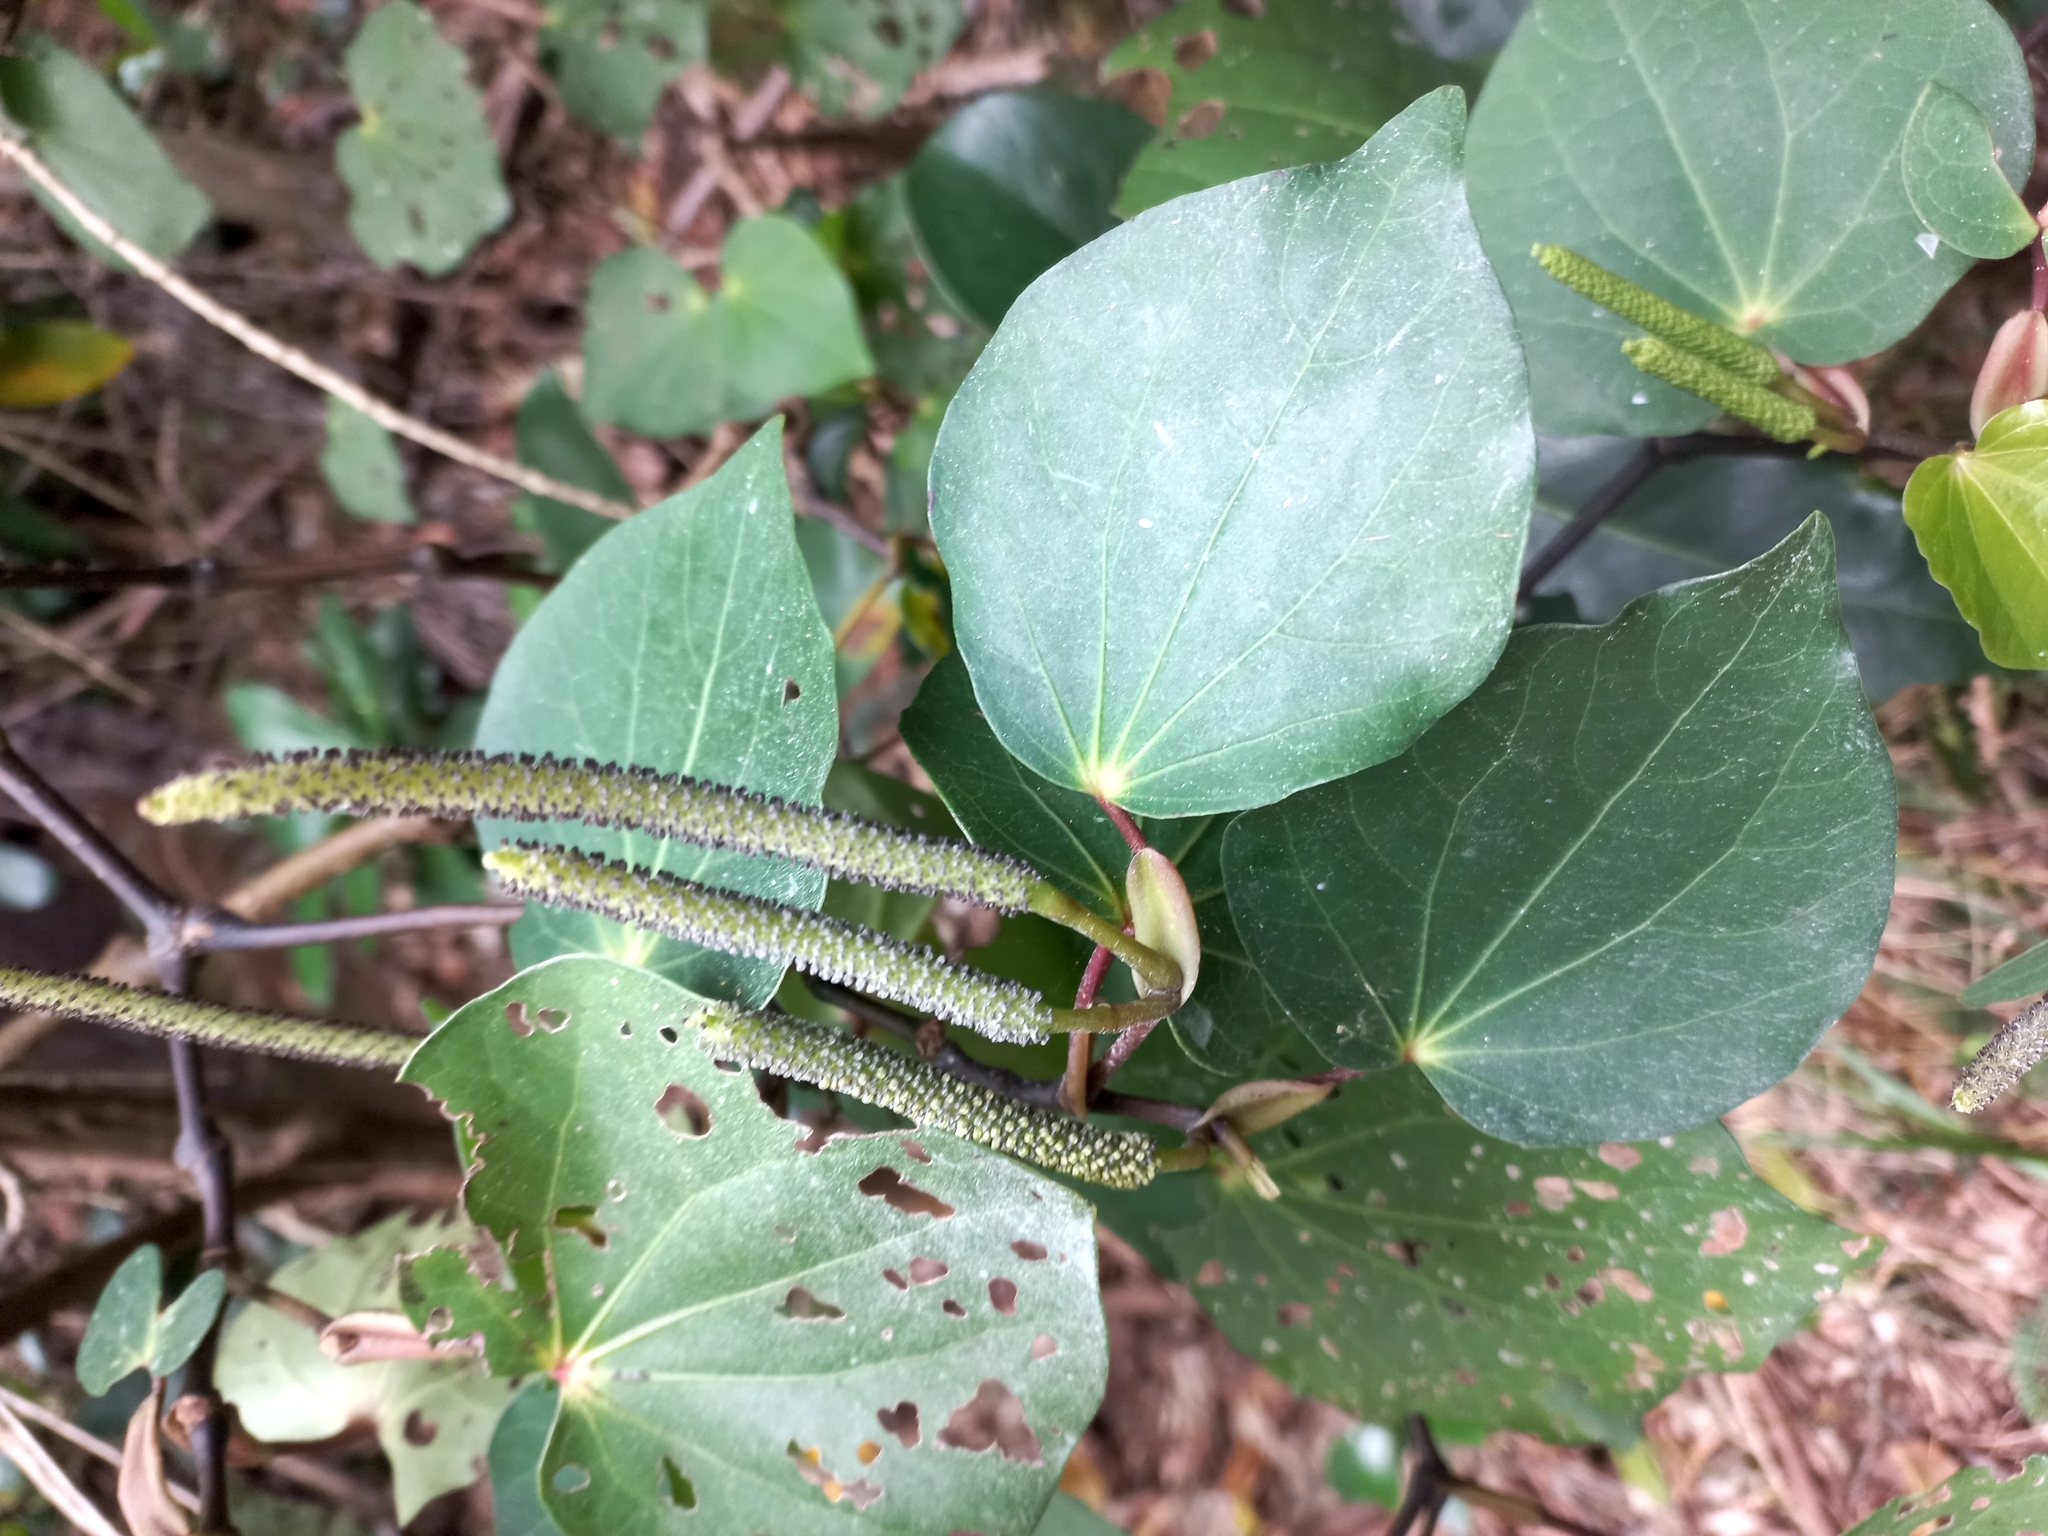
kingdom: Plantae
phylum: Tracheophyta
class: Magnoliopsida
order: Piperales
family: Piperaceae
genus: Macropiper
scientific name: Macropiper excelsum
